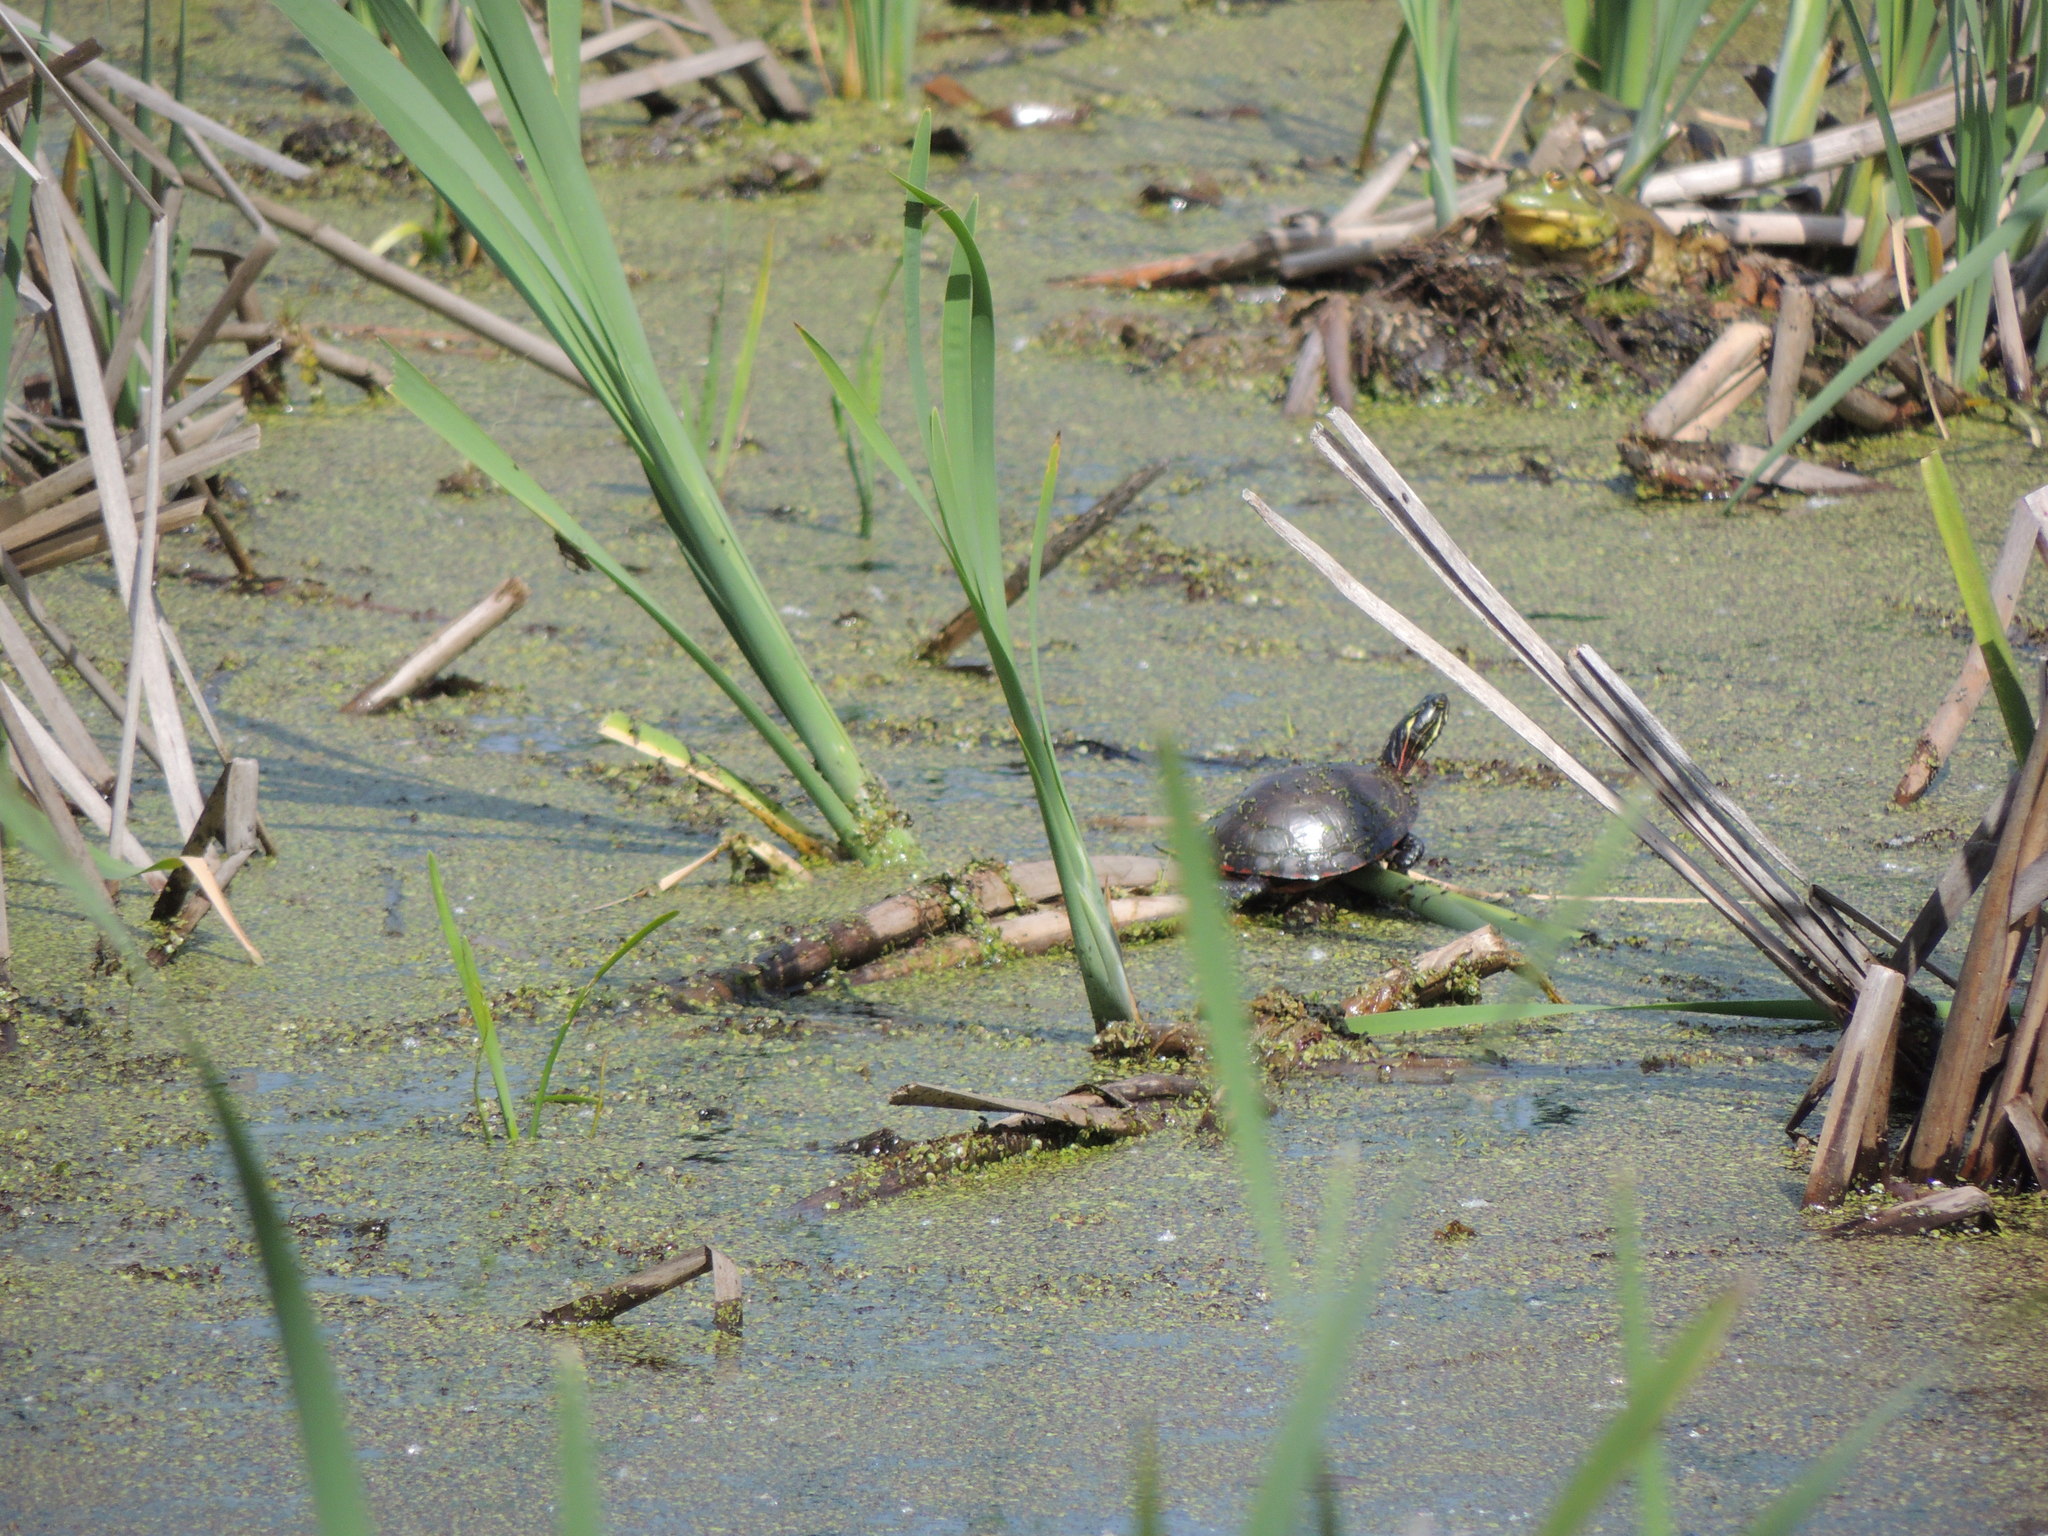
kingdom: Animalia
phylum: Chordata
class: Testudines
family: Emydidae
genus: Chrysemys
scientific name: Chrysemys picta
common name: Painted turtle
